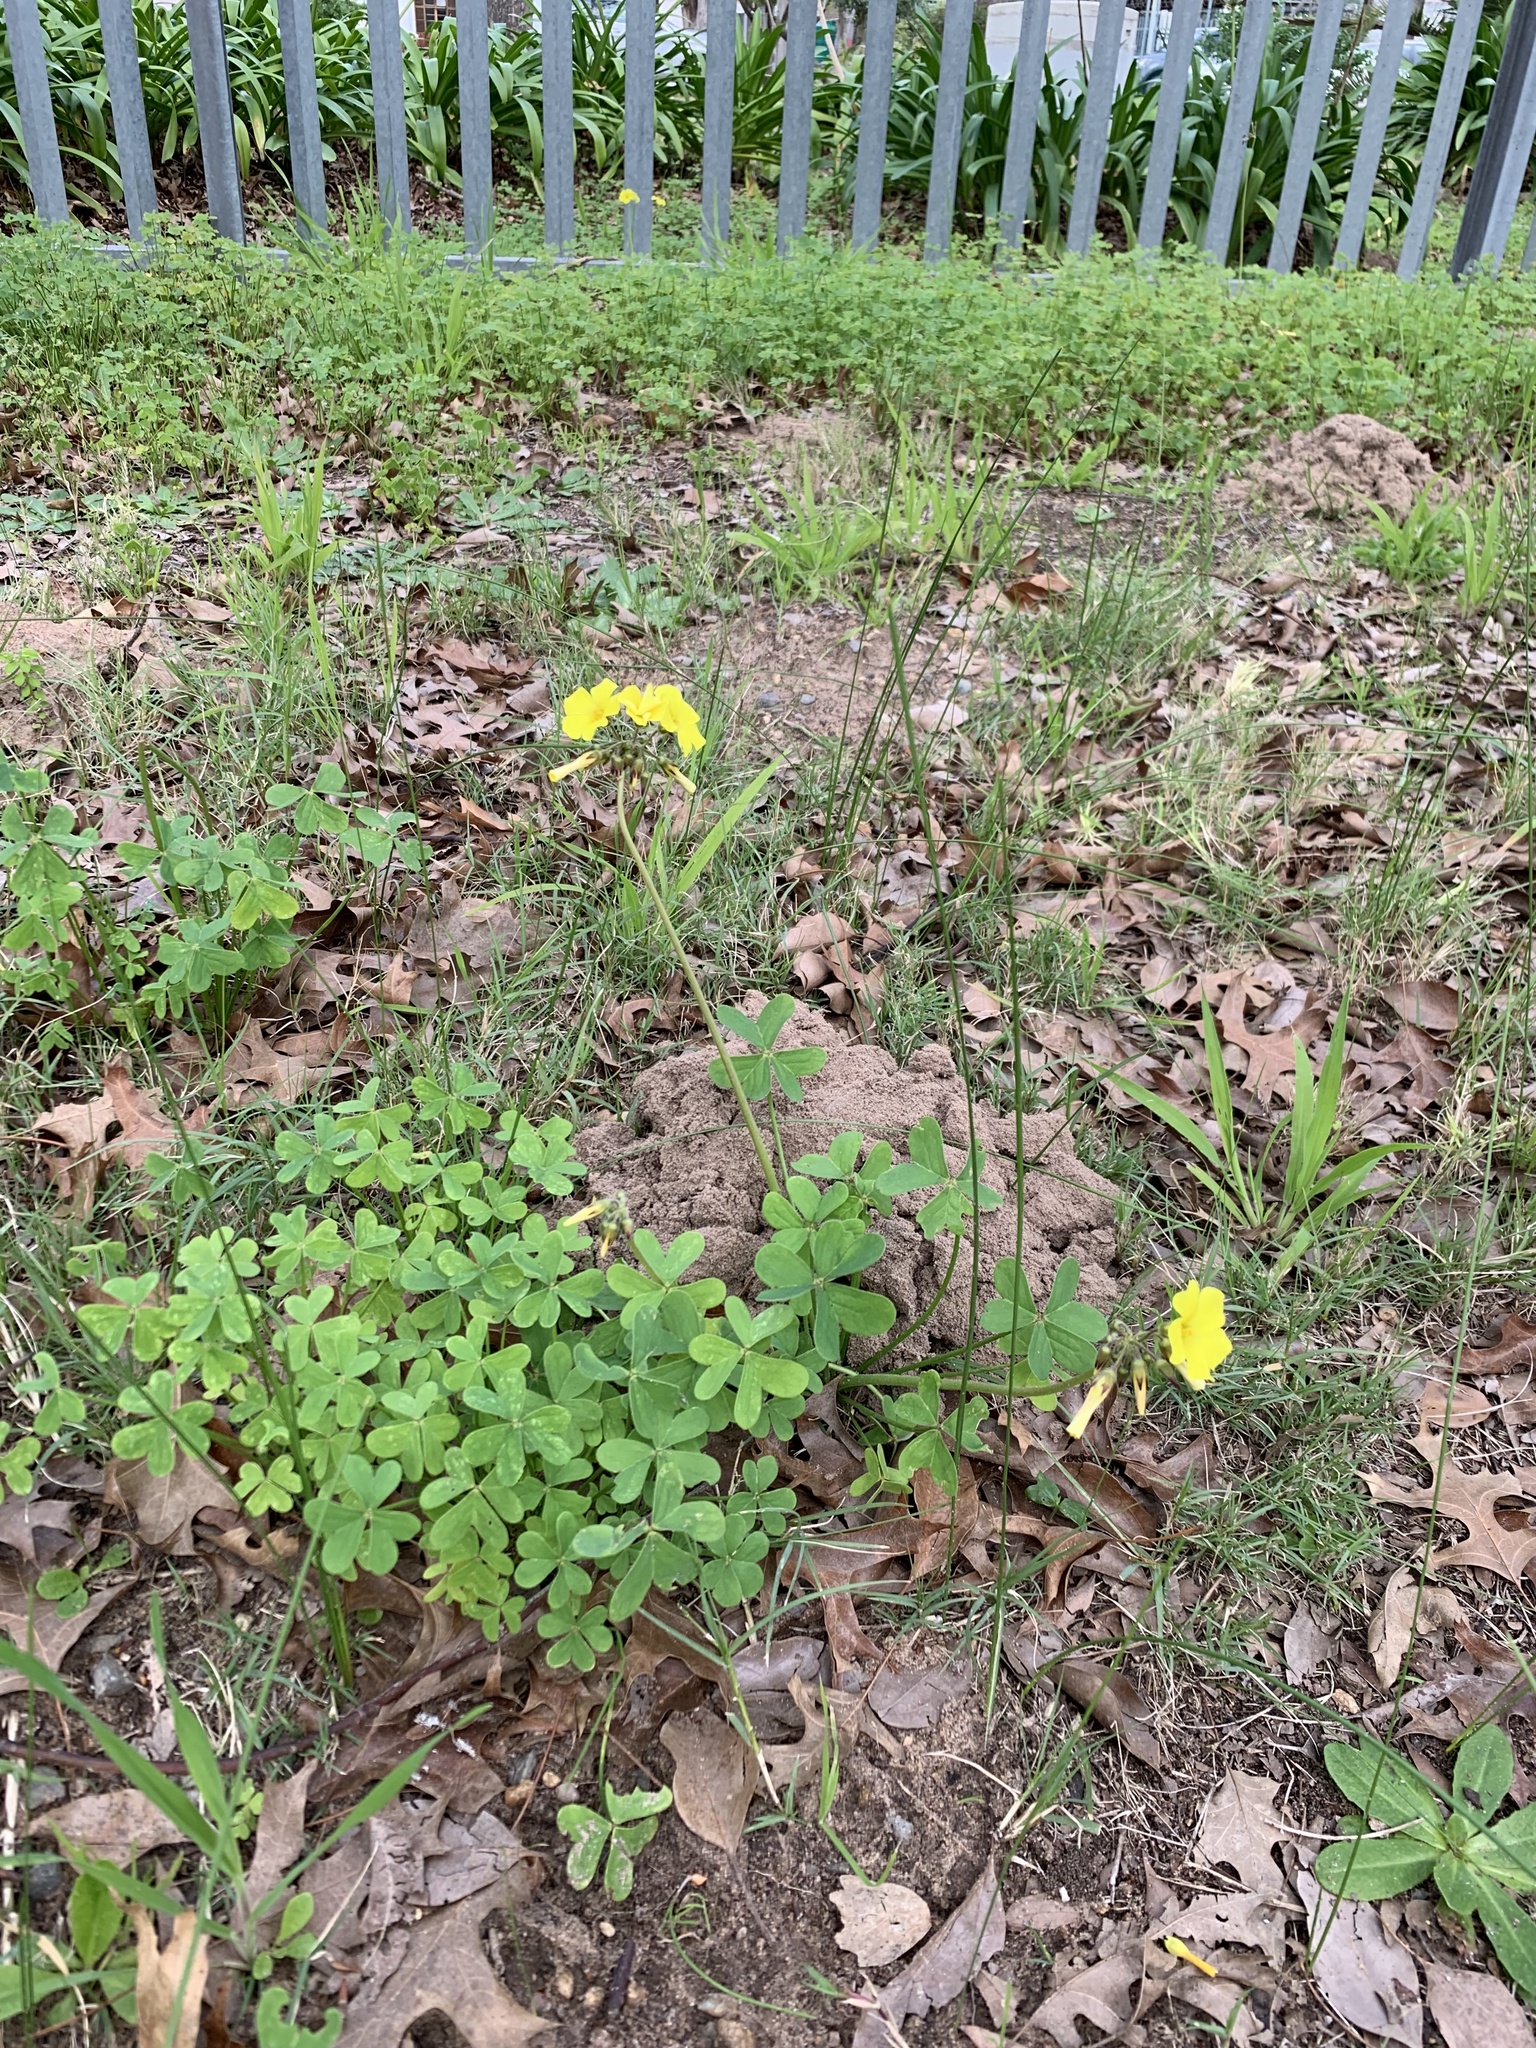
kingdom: Plantae
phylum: Tracheophyta
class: Magnoliopsida
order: Oxalidales
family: Oxalidaceae
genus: Oxalis
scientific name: Oxalis pes-caprae
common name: Bermuda-buttercup
